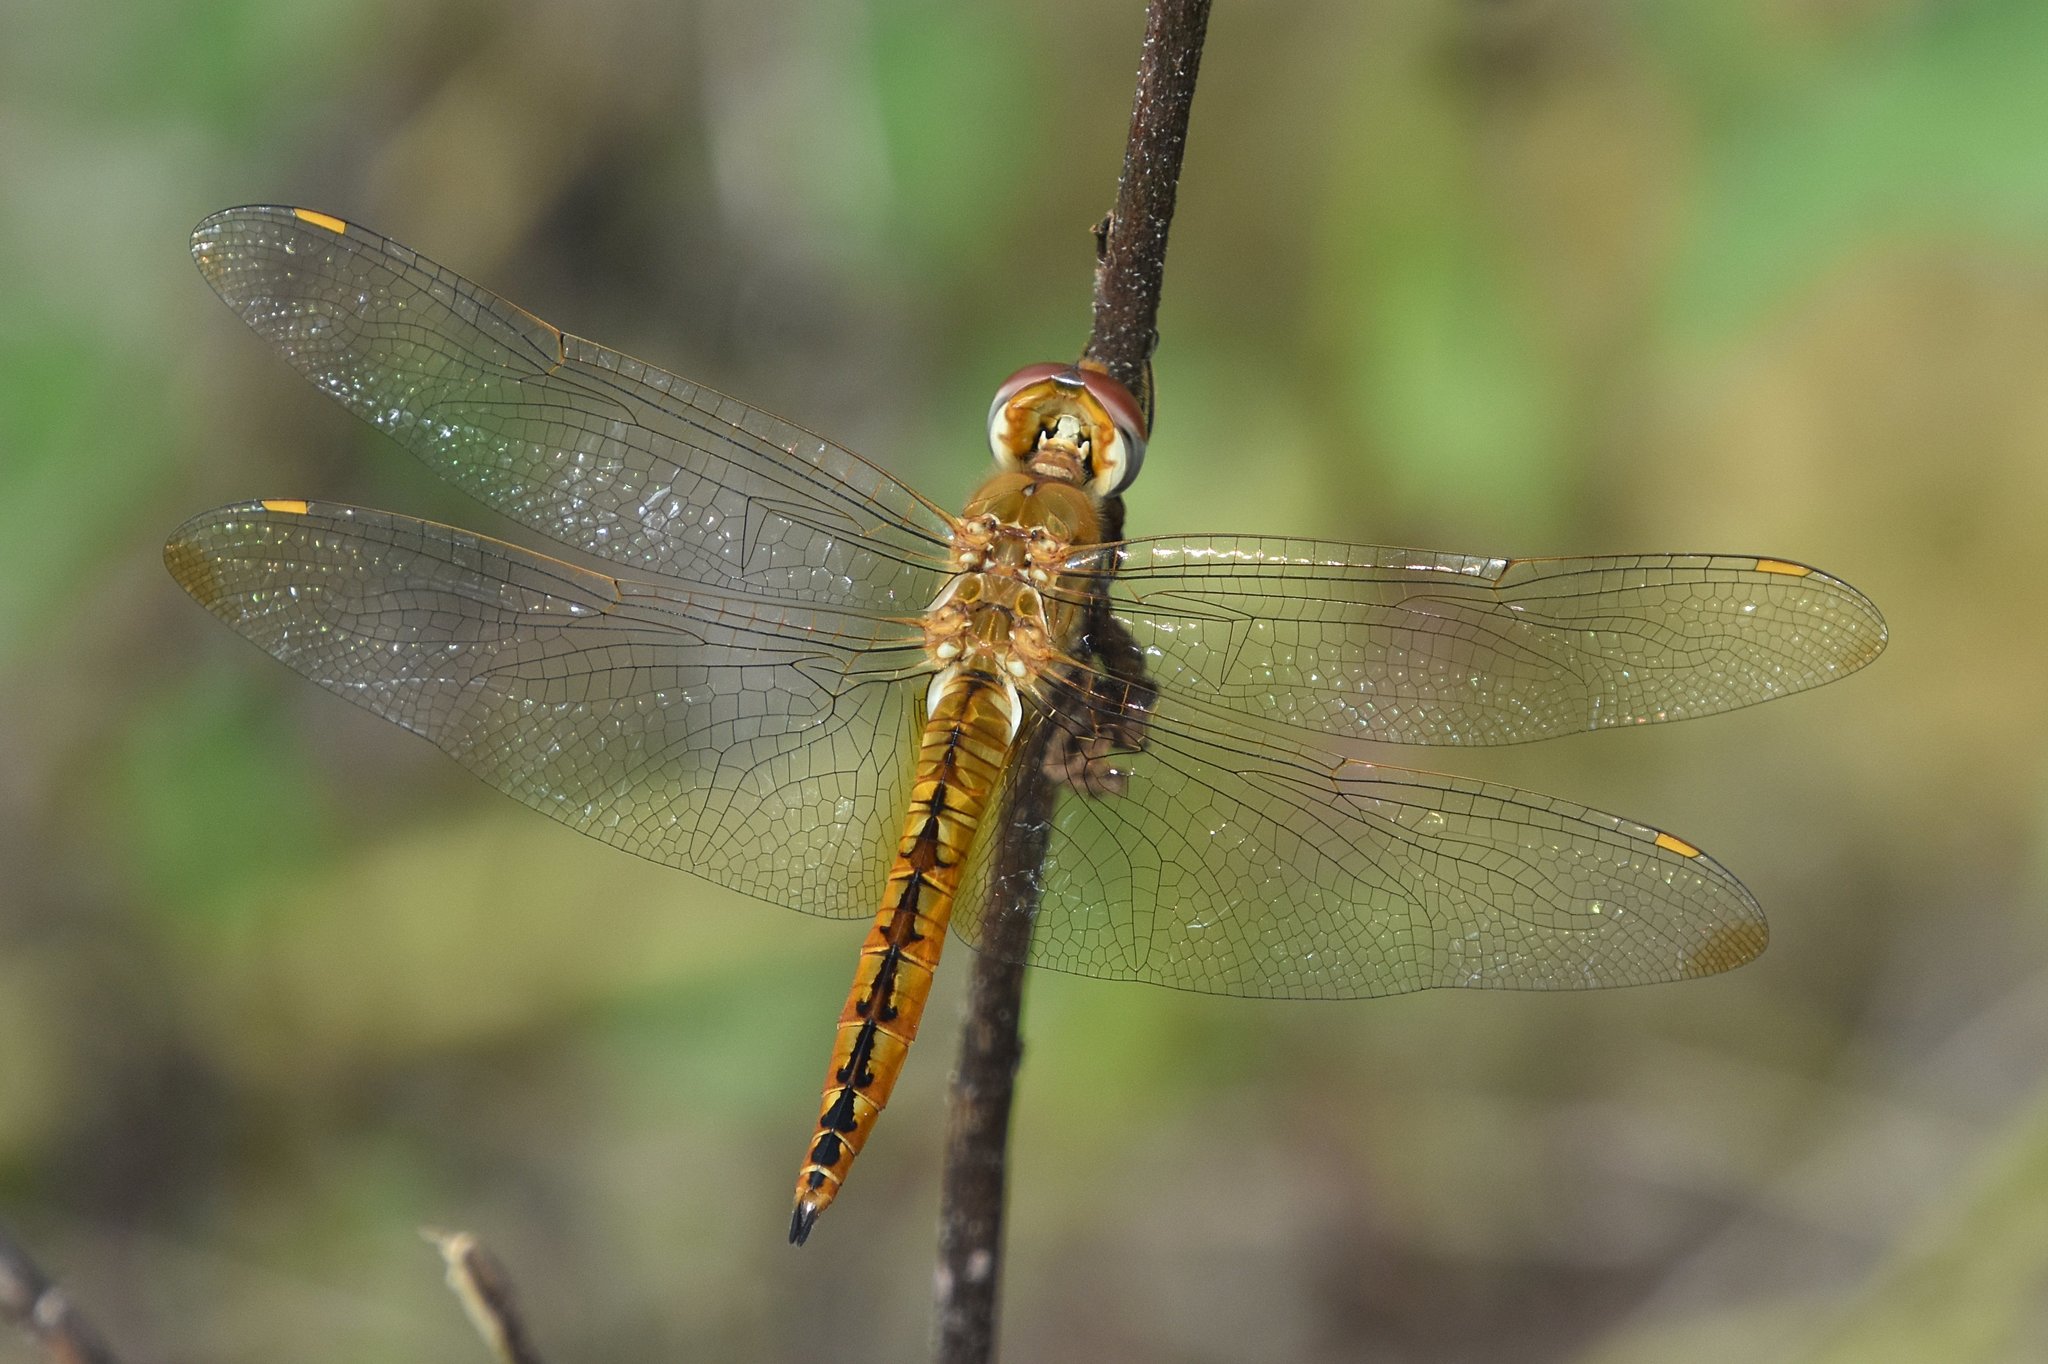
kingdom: Animalia
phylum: Arthropoda
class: Insecta
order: Odonata
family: Libellulidae
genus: Pantala
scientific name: Pantala flavescens
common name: Wandering glider
